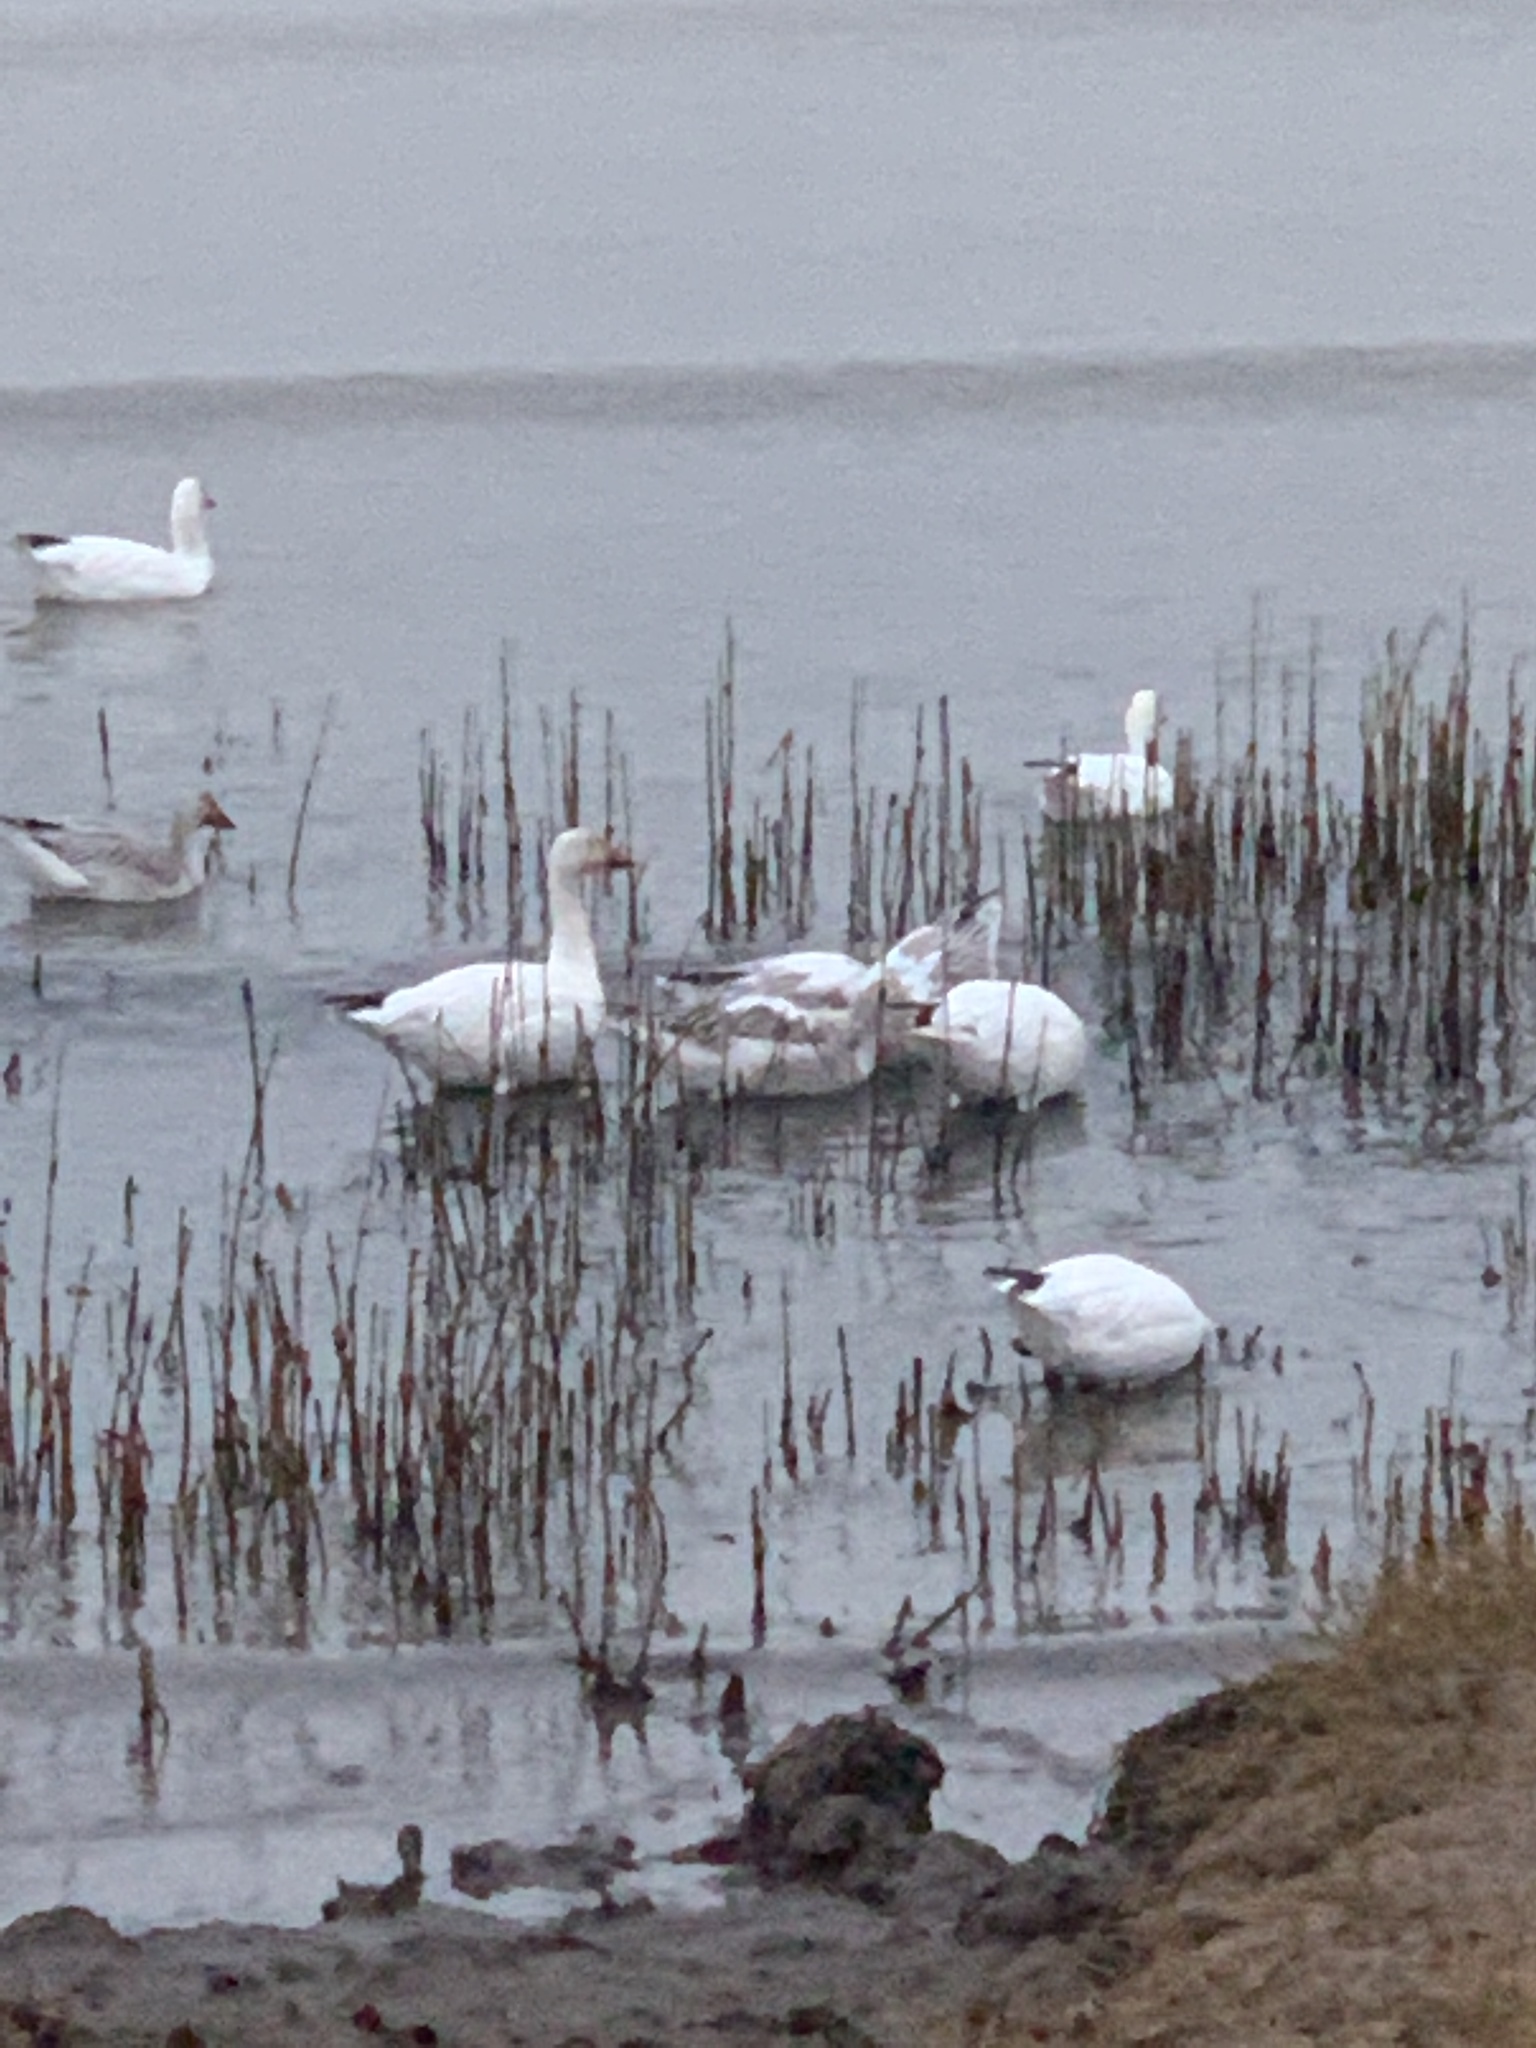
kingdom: Animalia
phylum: Chordata
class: Aves
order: Anseriformes
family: Anatidae
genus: Anser
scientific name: Anser caerulescens
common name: Snow goose
